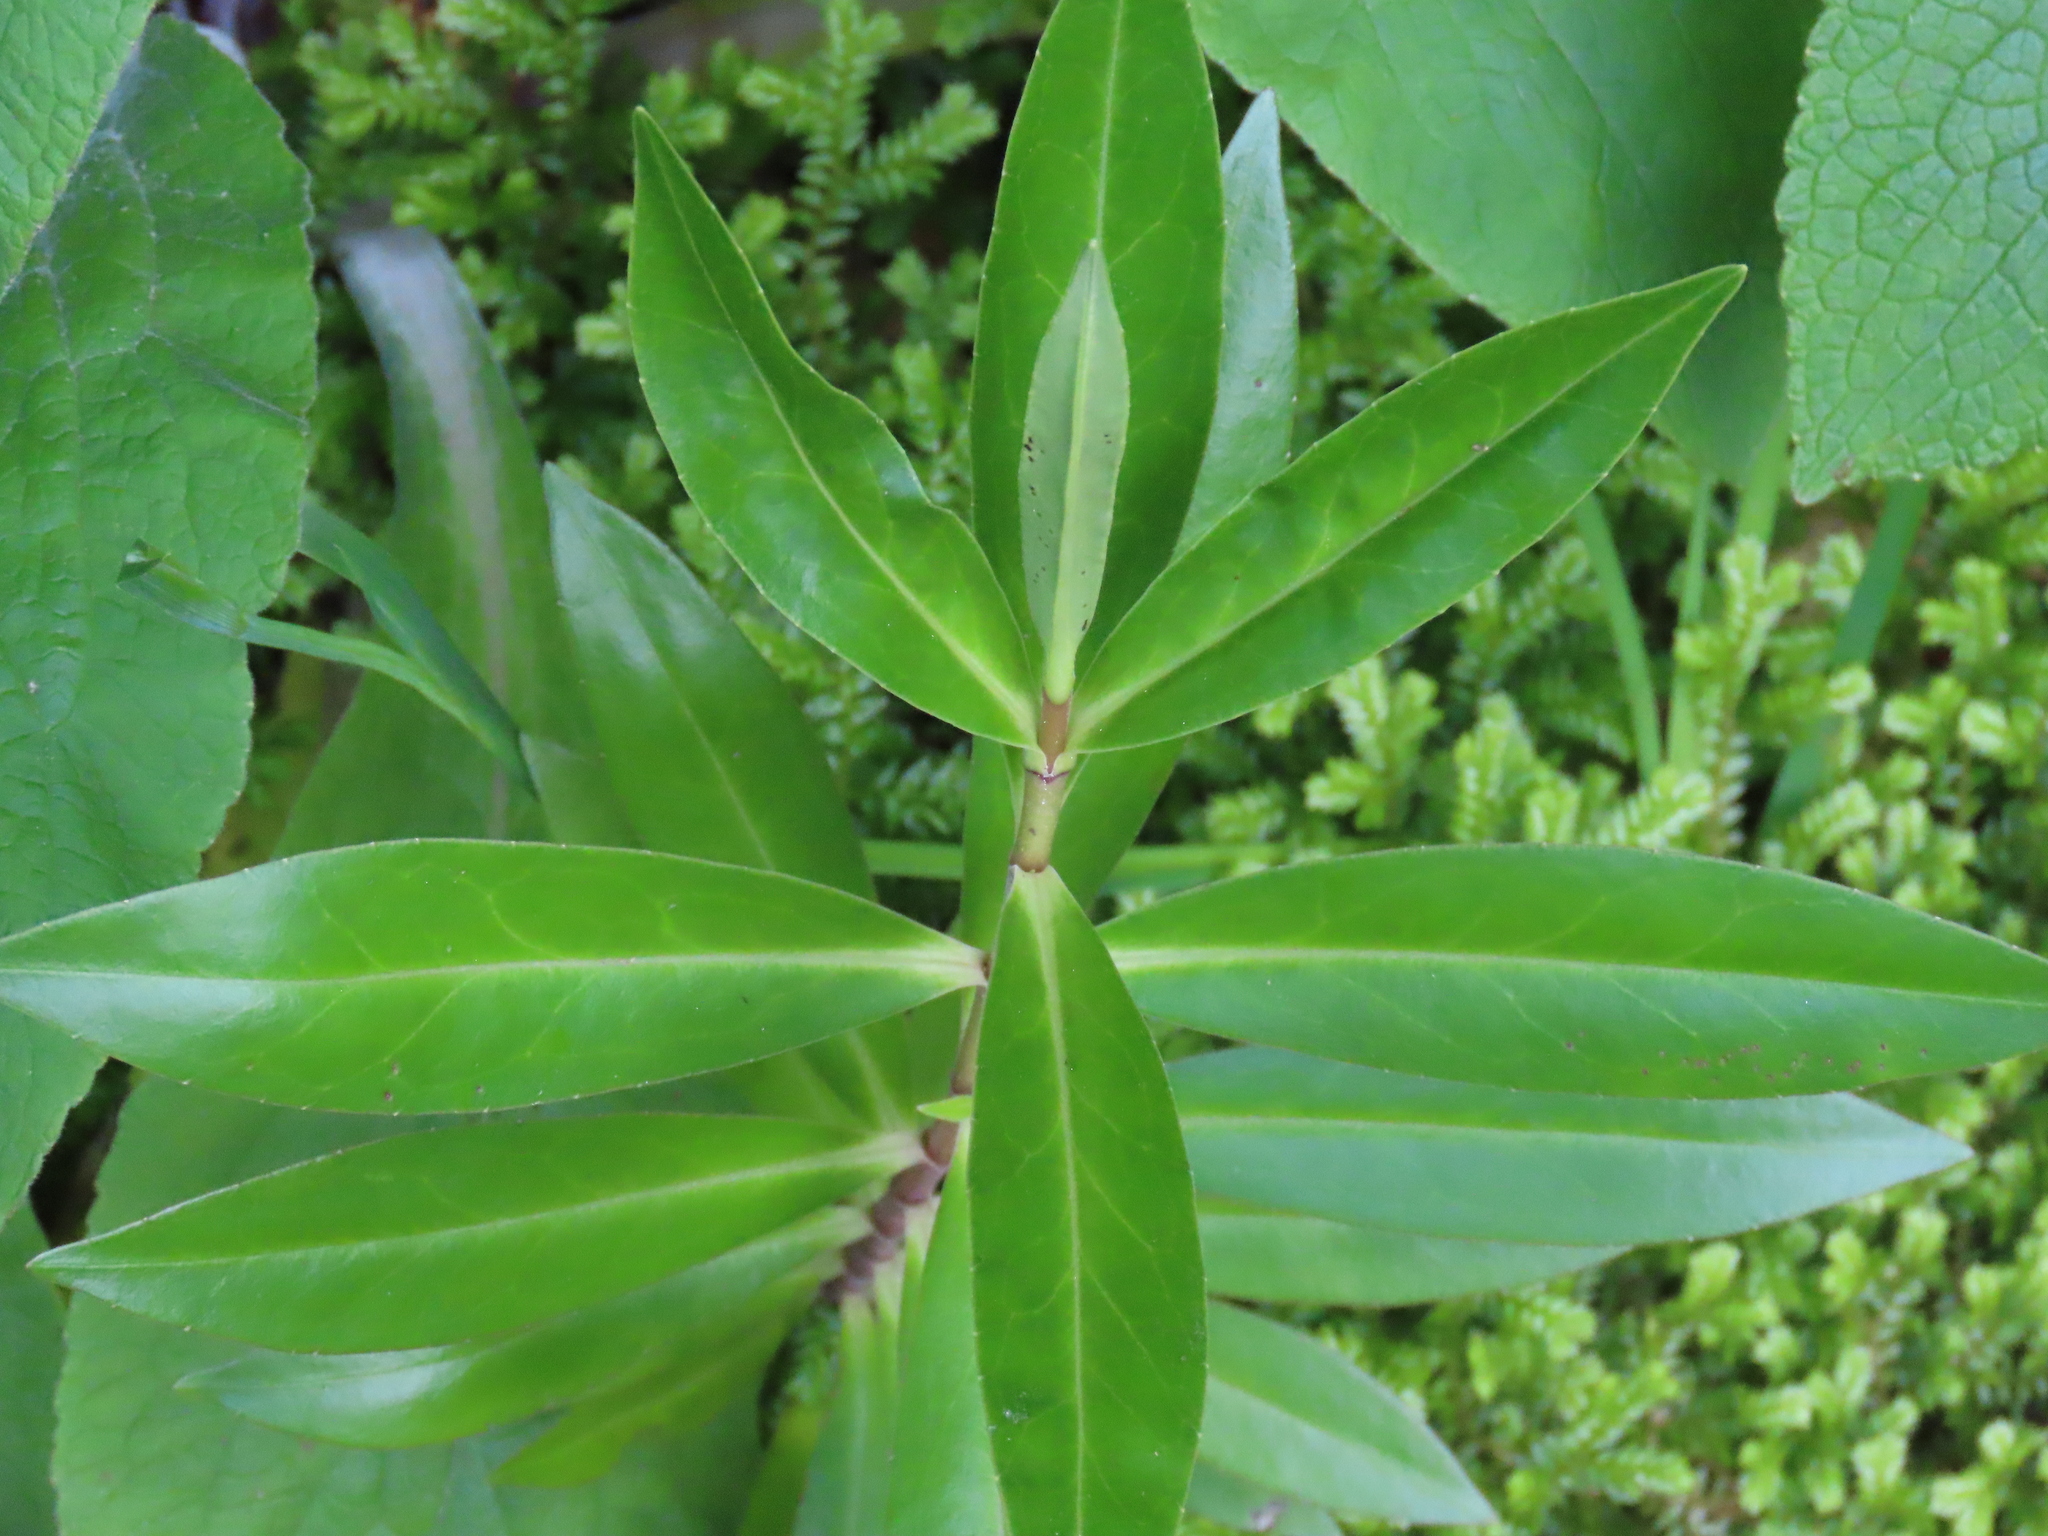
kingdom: Plantae
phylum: Tracheophyta
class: Magnoliopsida
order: Lamiales
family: Plantaginaceae
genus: Veronica
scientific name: Veronica stricta
